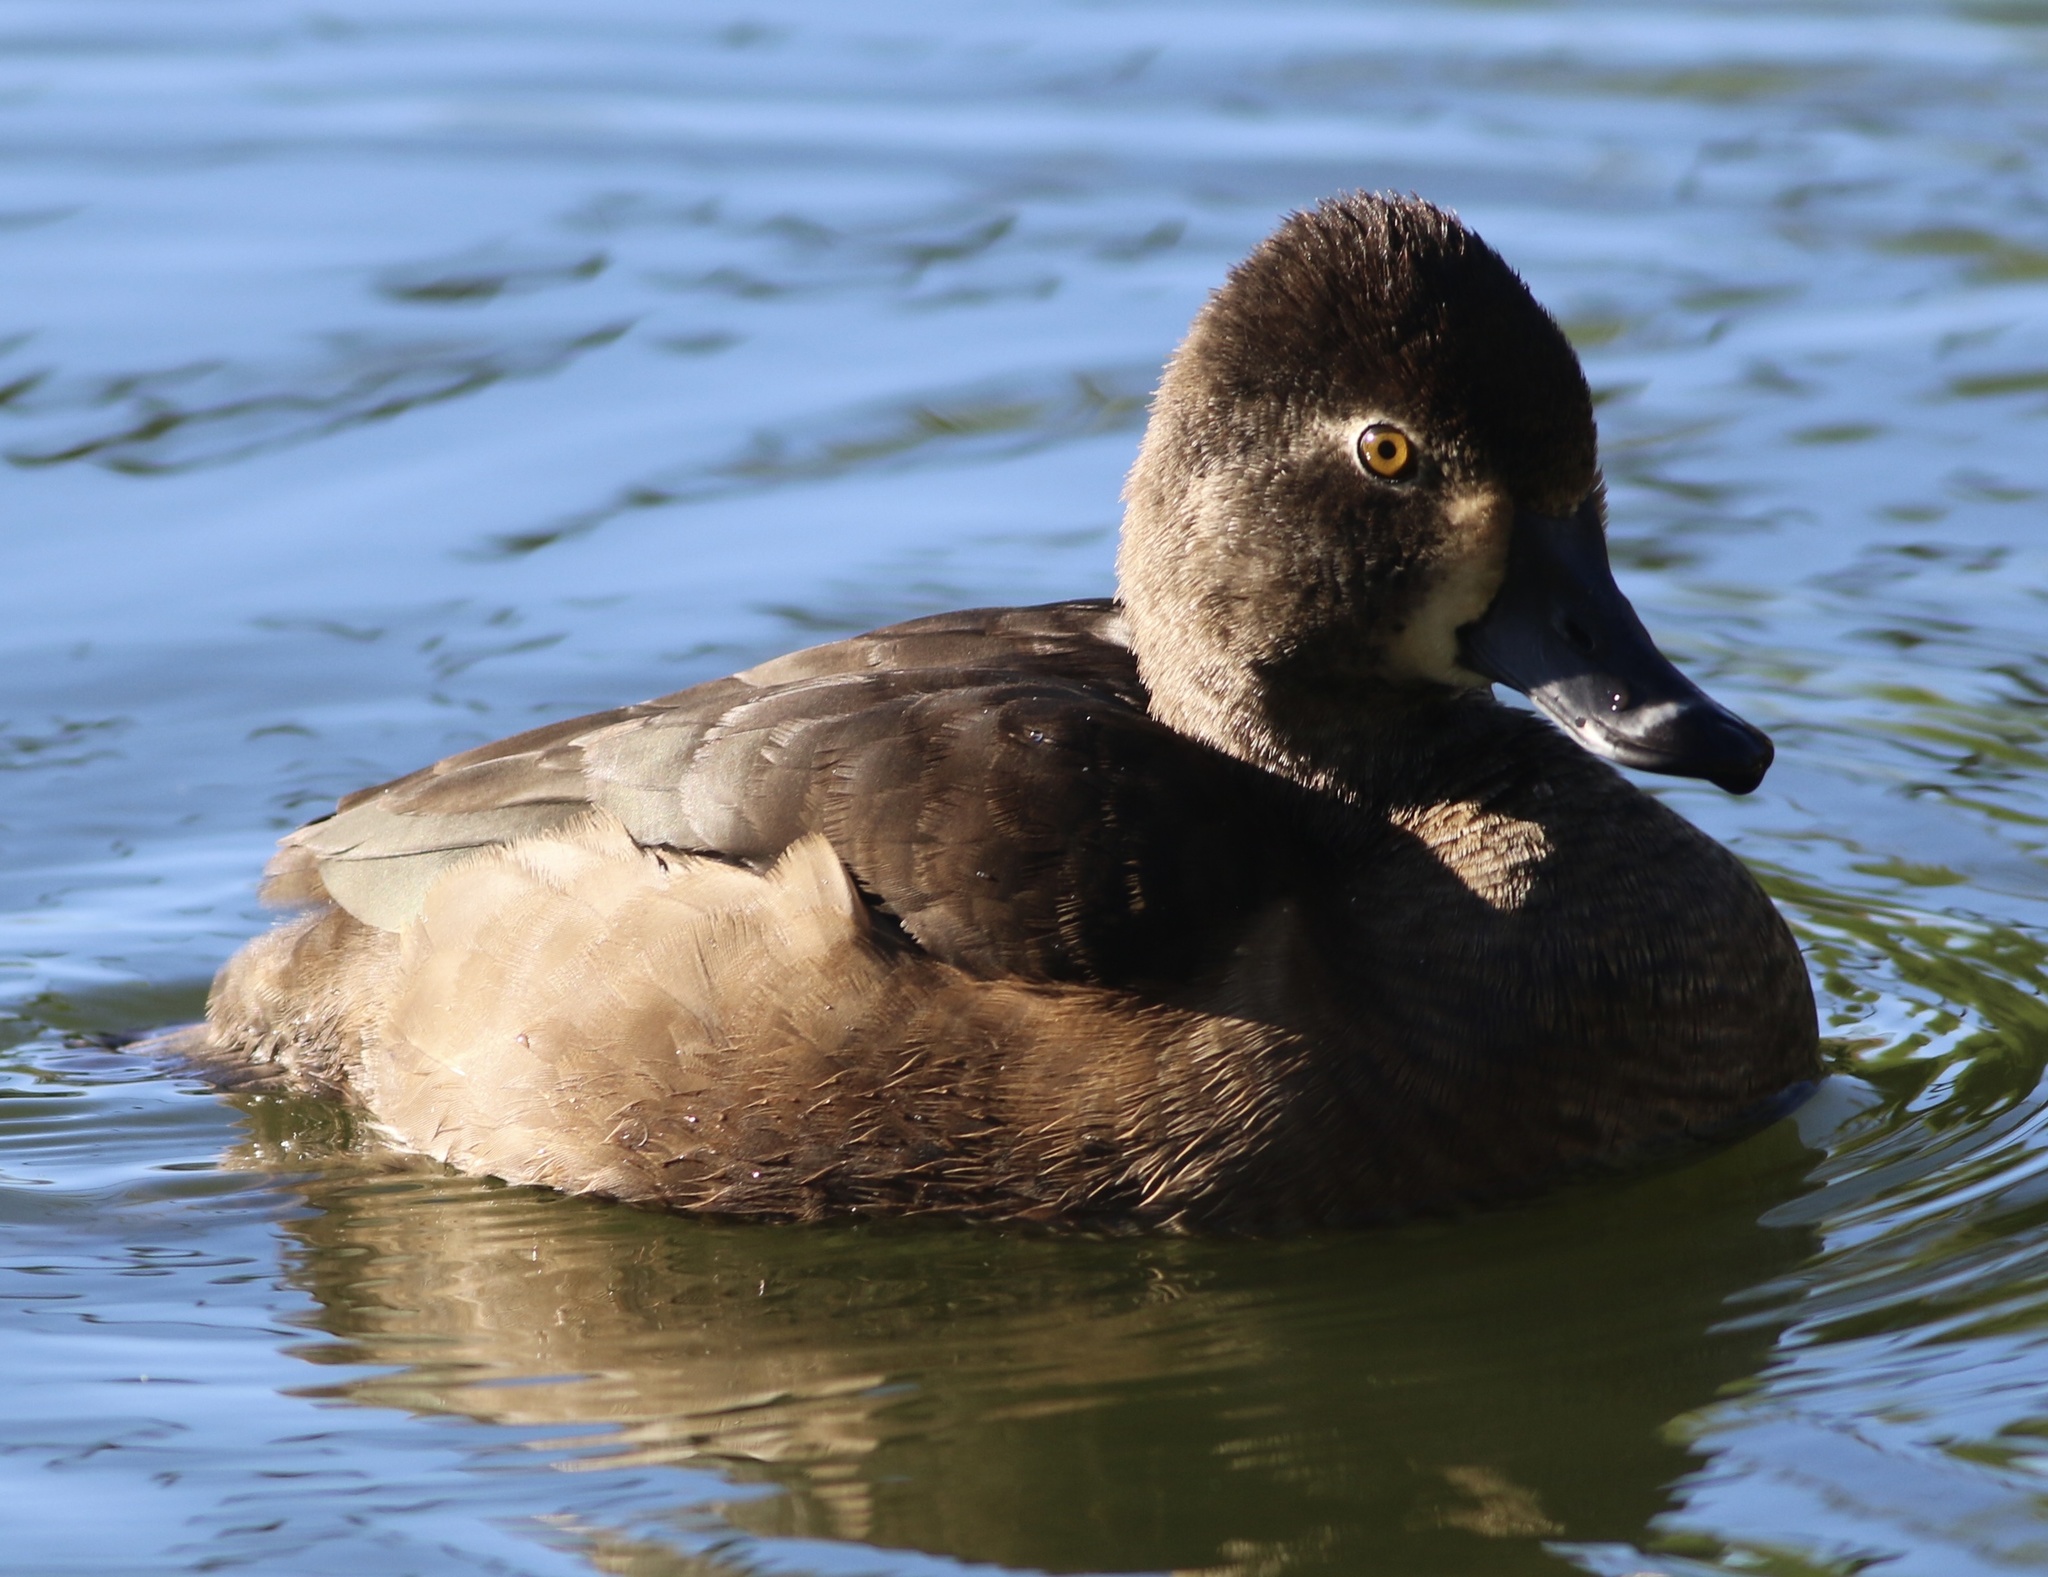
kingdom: Animalia
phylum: Chordata
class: Aves
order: Anseriformes
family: Anatidae
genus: Aythya
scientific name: Aythya collaris
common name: Ring-necked duck
